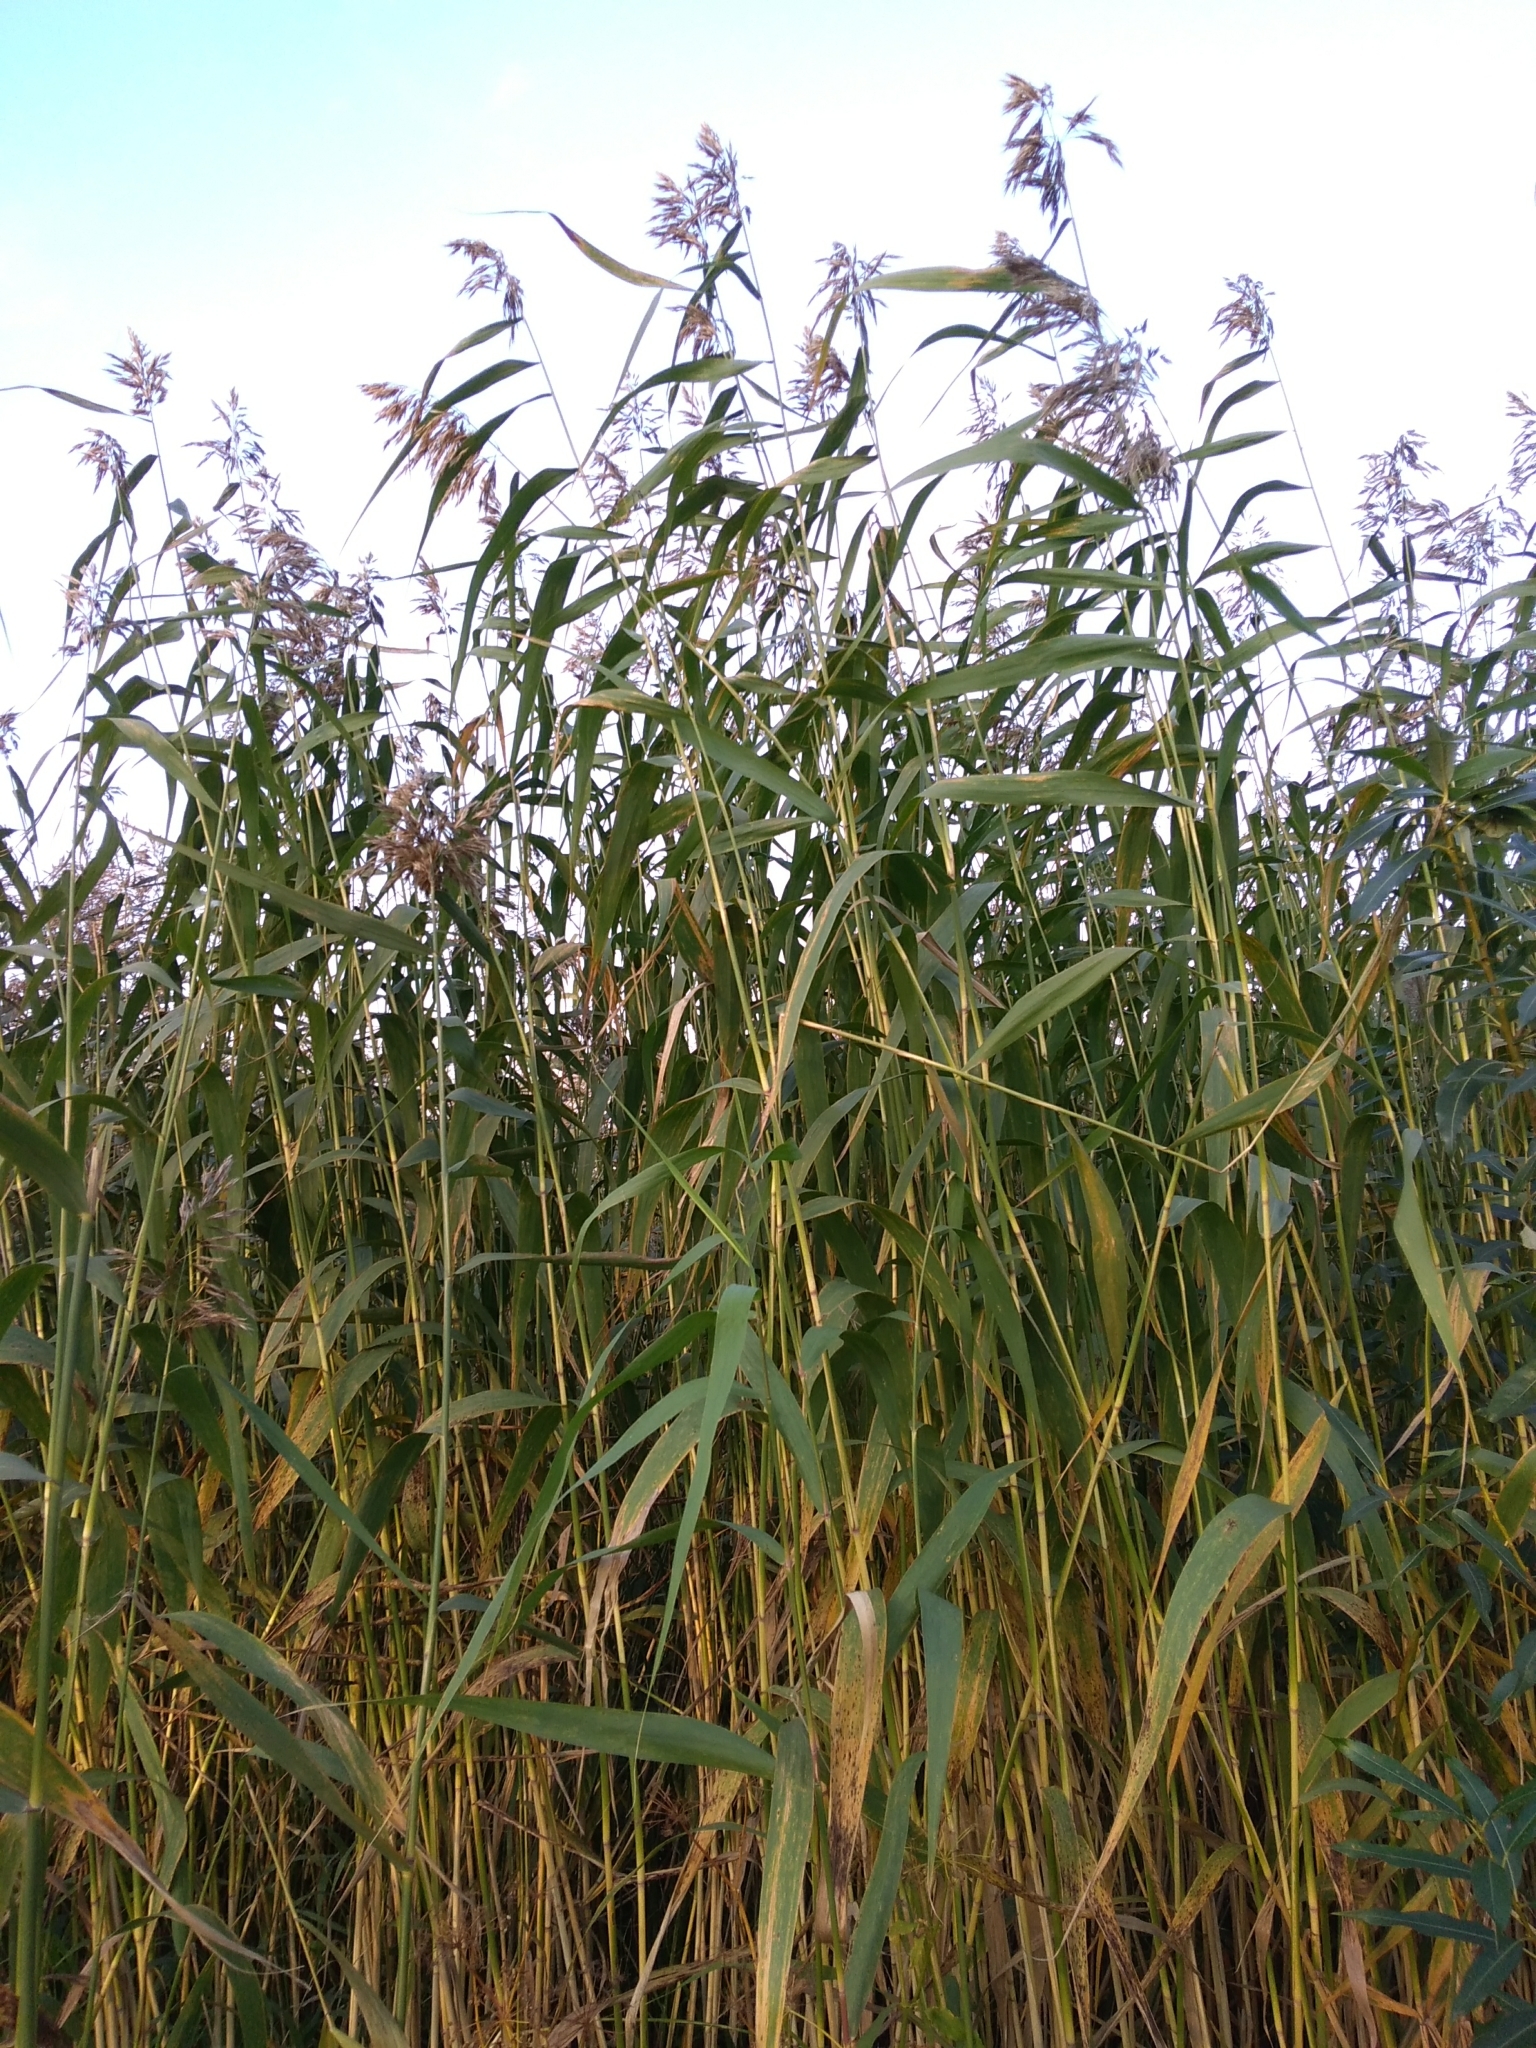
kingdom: Plantae
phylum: Tracheophyta
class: Liliopsida
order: Poales
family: Poaceae
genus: Phragmites
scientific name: Phragmites australis
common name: Common reed
